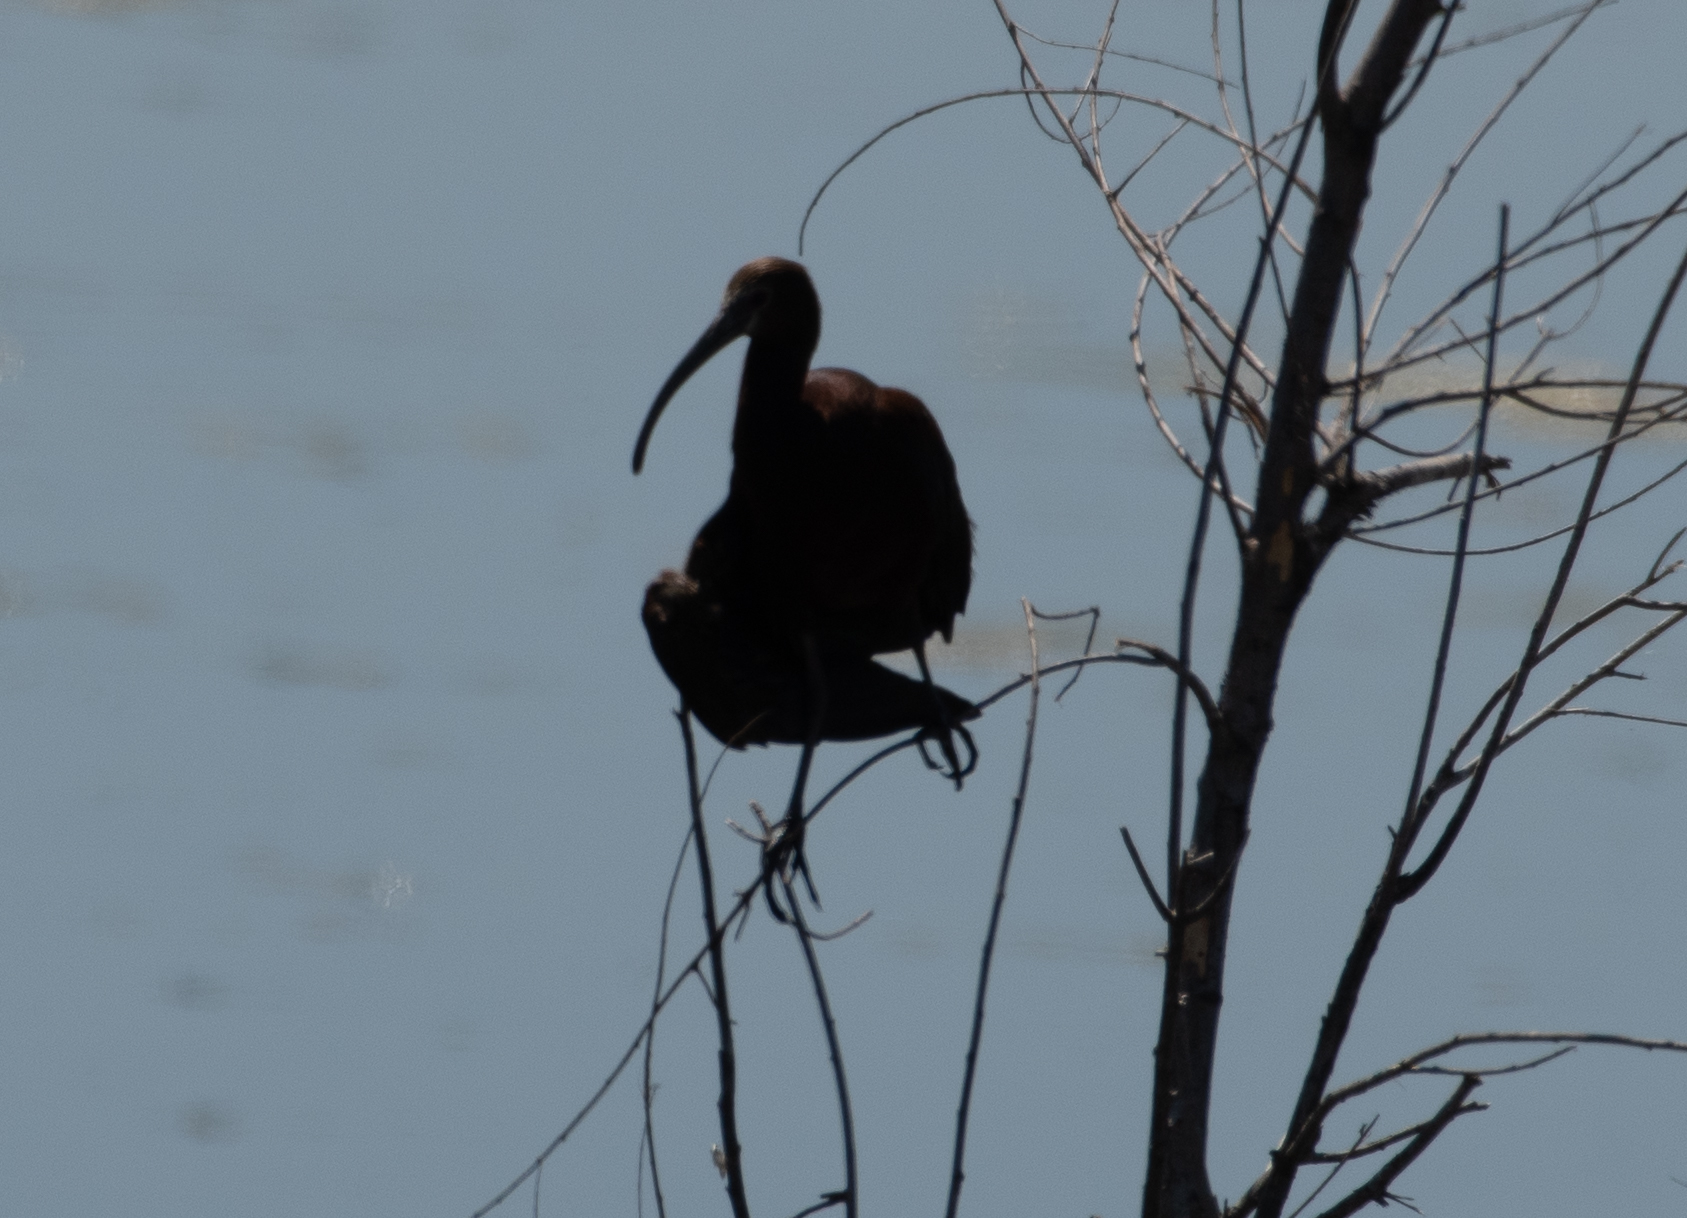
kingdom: Animalia
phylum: Chordata
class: Aves
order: Pelecaniformes
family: Threskiornithidae
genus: Plegadis
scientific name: Plegadis chihi
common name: White-faced ibis
